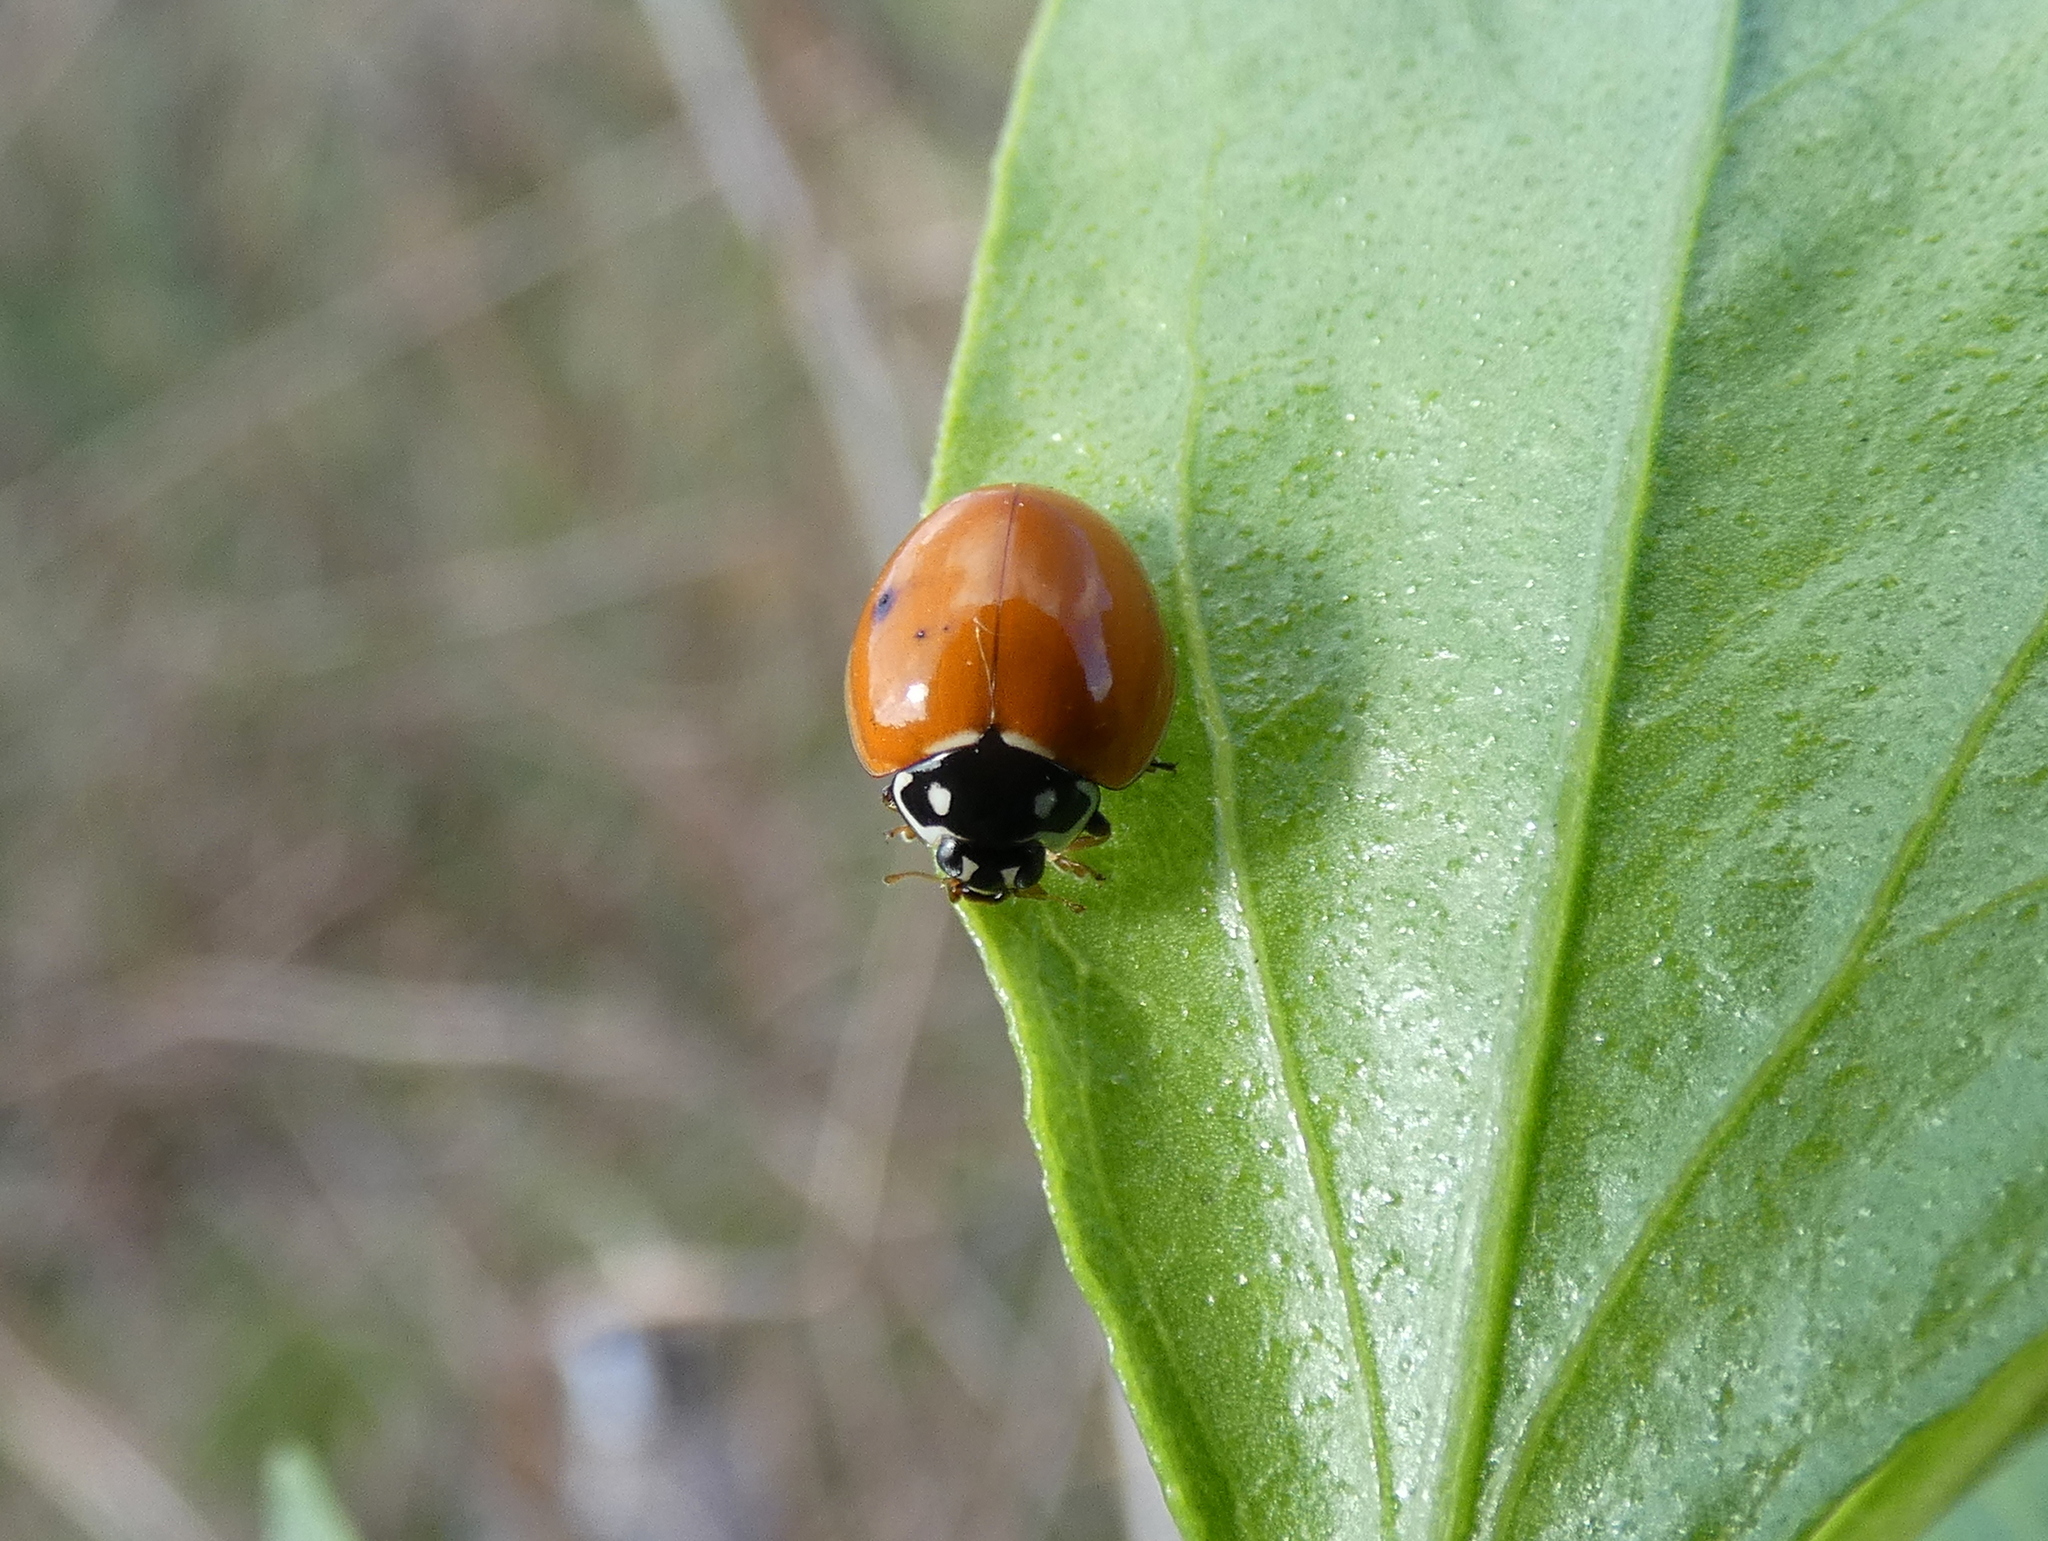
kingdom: Animalia
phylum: Arthropoda
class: Insecta
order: Coleoptera
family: Coccinellidae
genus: Cycloneda
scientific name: Cycloneda sanguinea
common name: Ladybird beetle
